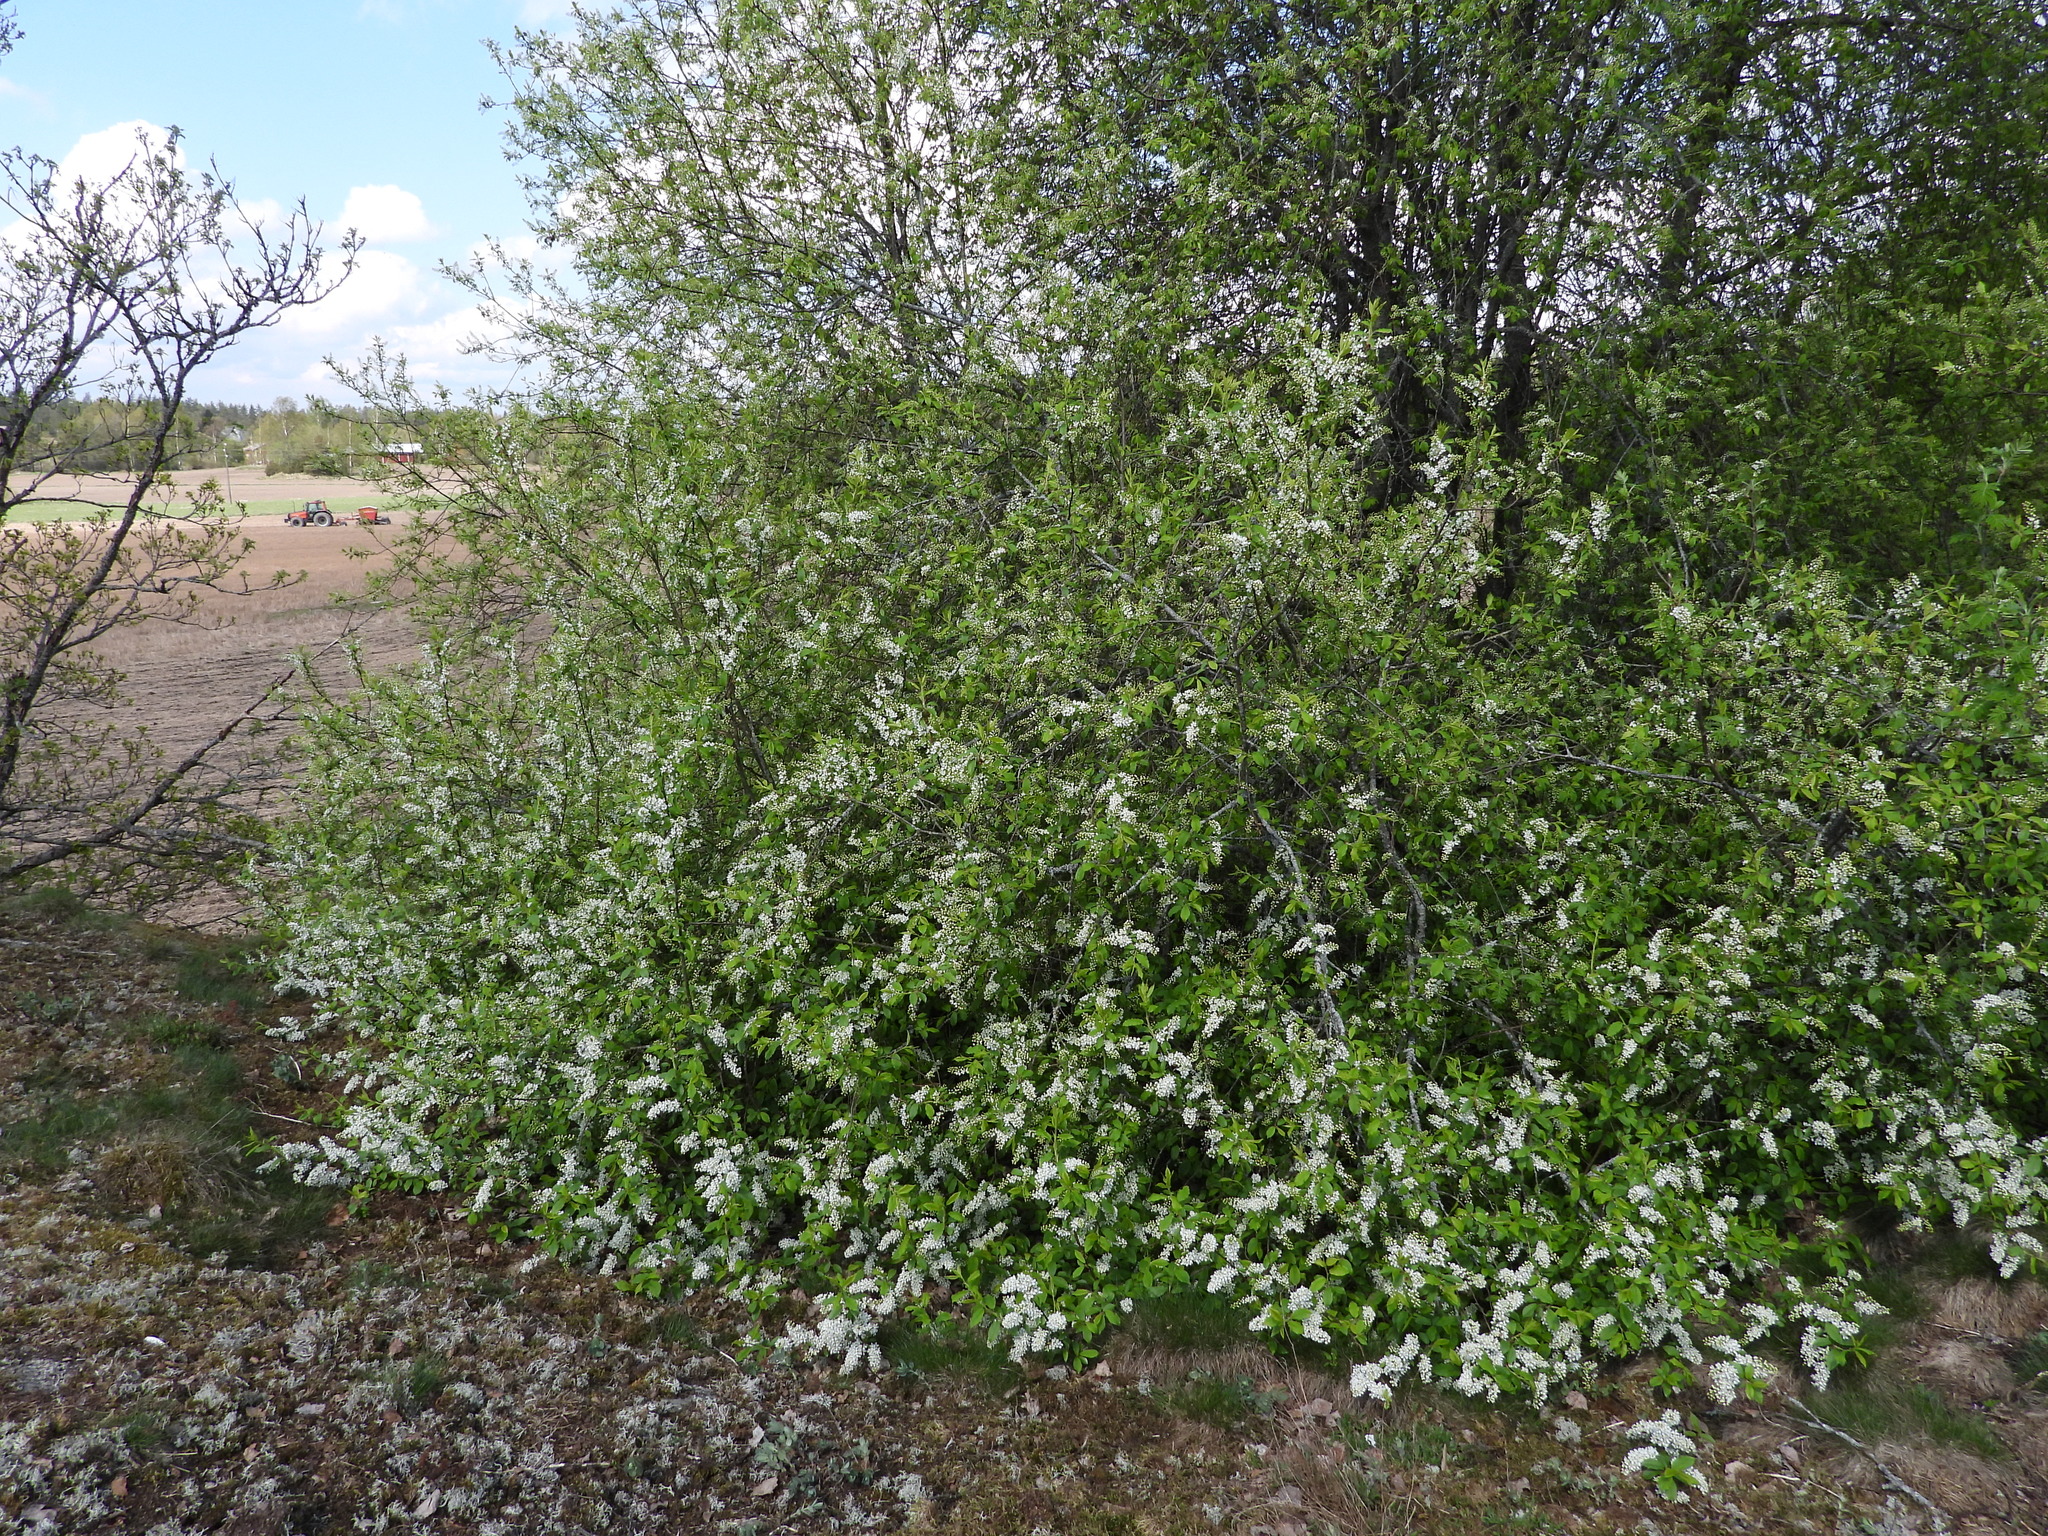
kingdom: Plantae
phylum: Tracheophyta
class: Magnoliopsida
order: Rosales
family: Rosaceae
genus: Prunus
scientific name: Prunus padus
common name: Bird cherry
